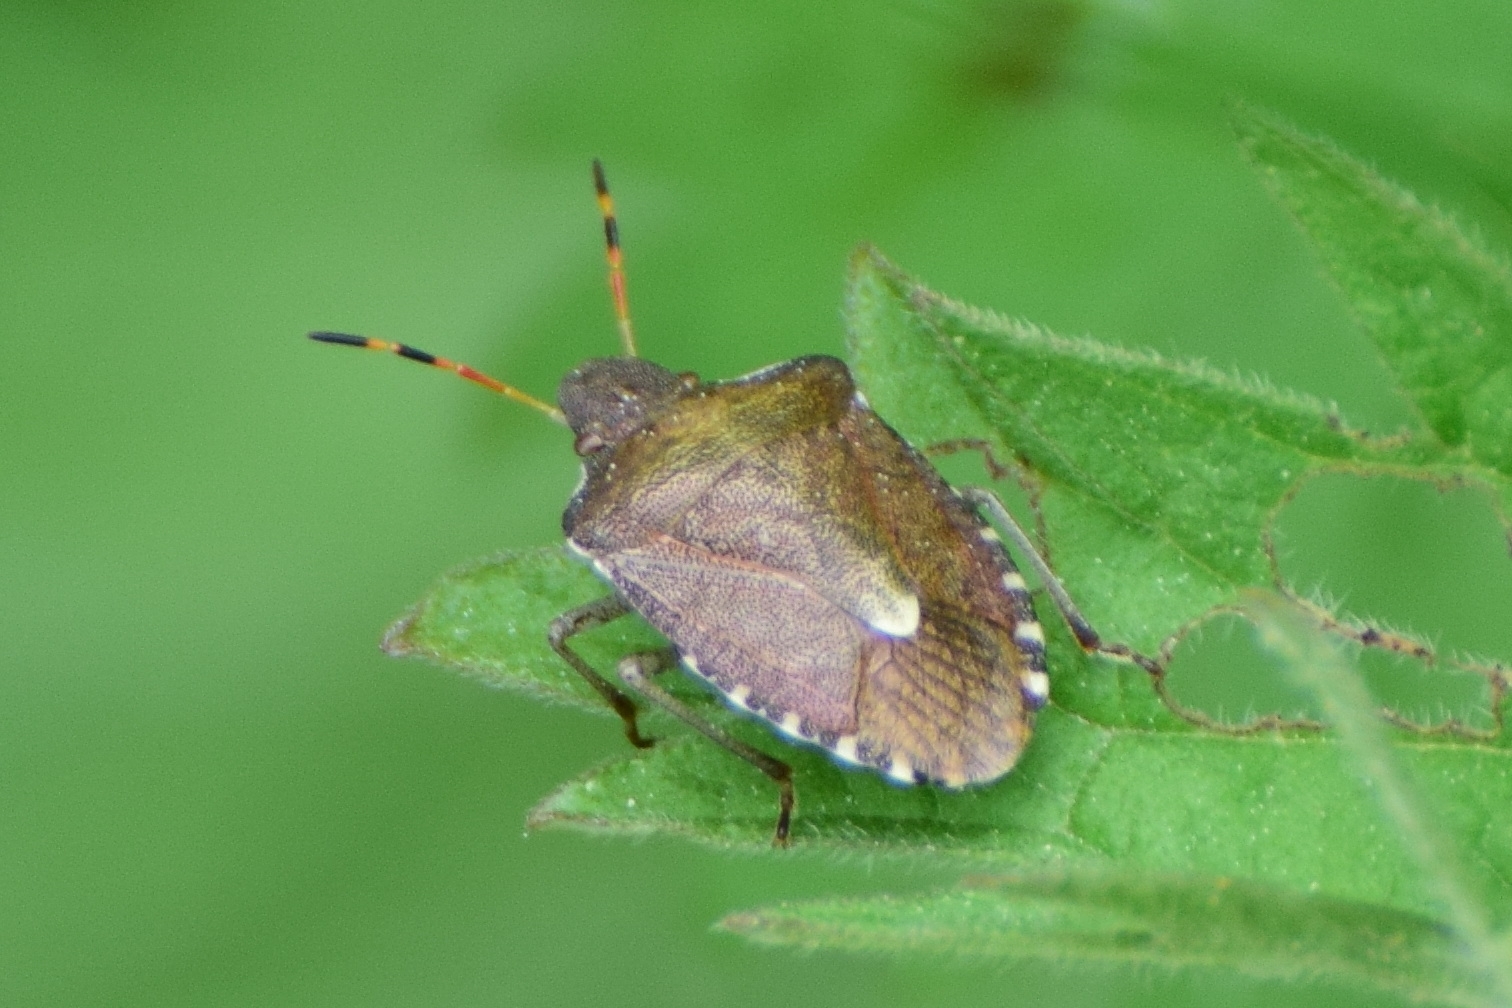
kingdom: Animalia
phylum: Arthropoda
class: Insecta
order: Hemiptera
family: Pentatomidae
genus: Holcostethus
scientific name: Holcostethus strictus
